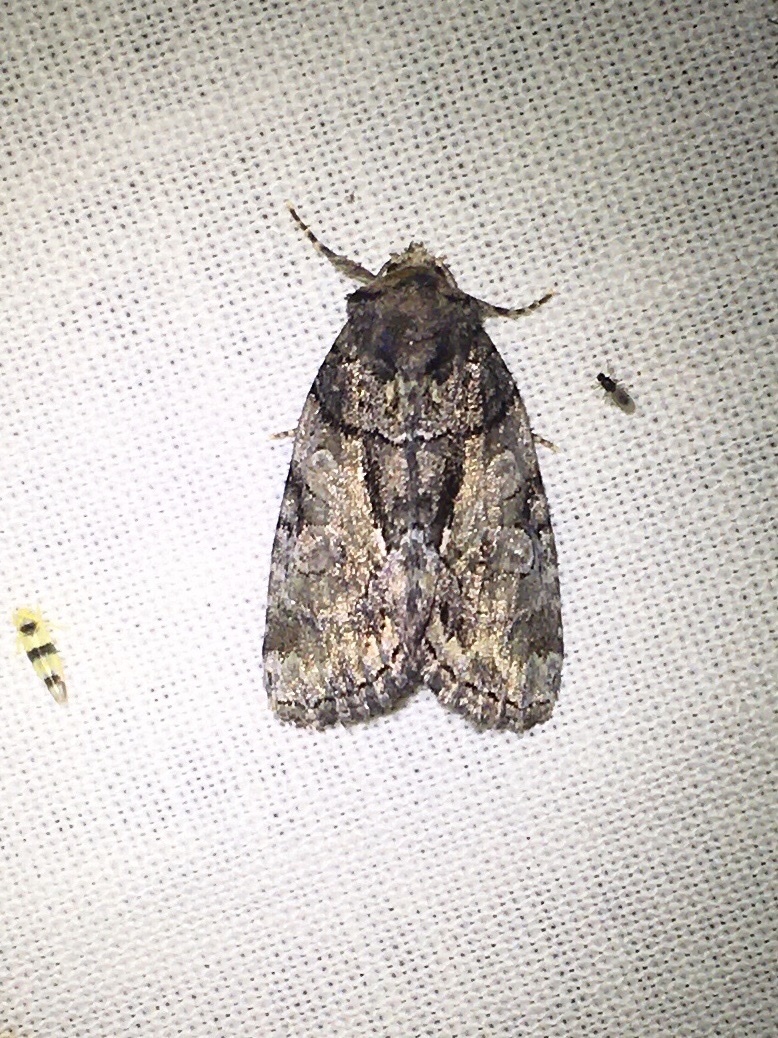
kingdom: Animalia
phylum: Arthropoda
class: Insecta
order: Lepidoptera
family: Noctuidae
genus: Chytonix
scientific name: Chytonix palliatricula
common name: Cloaked marvel
